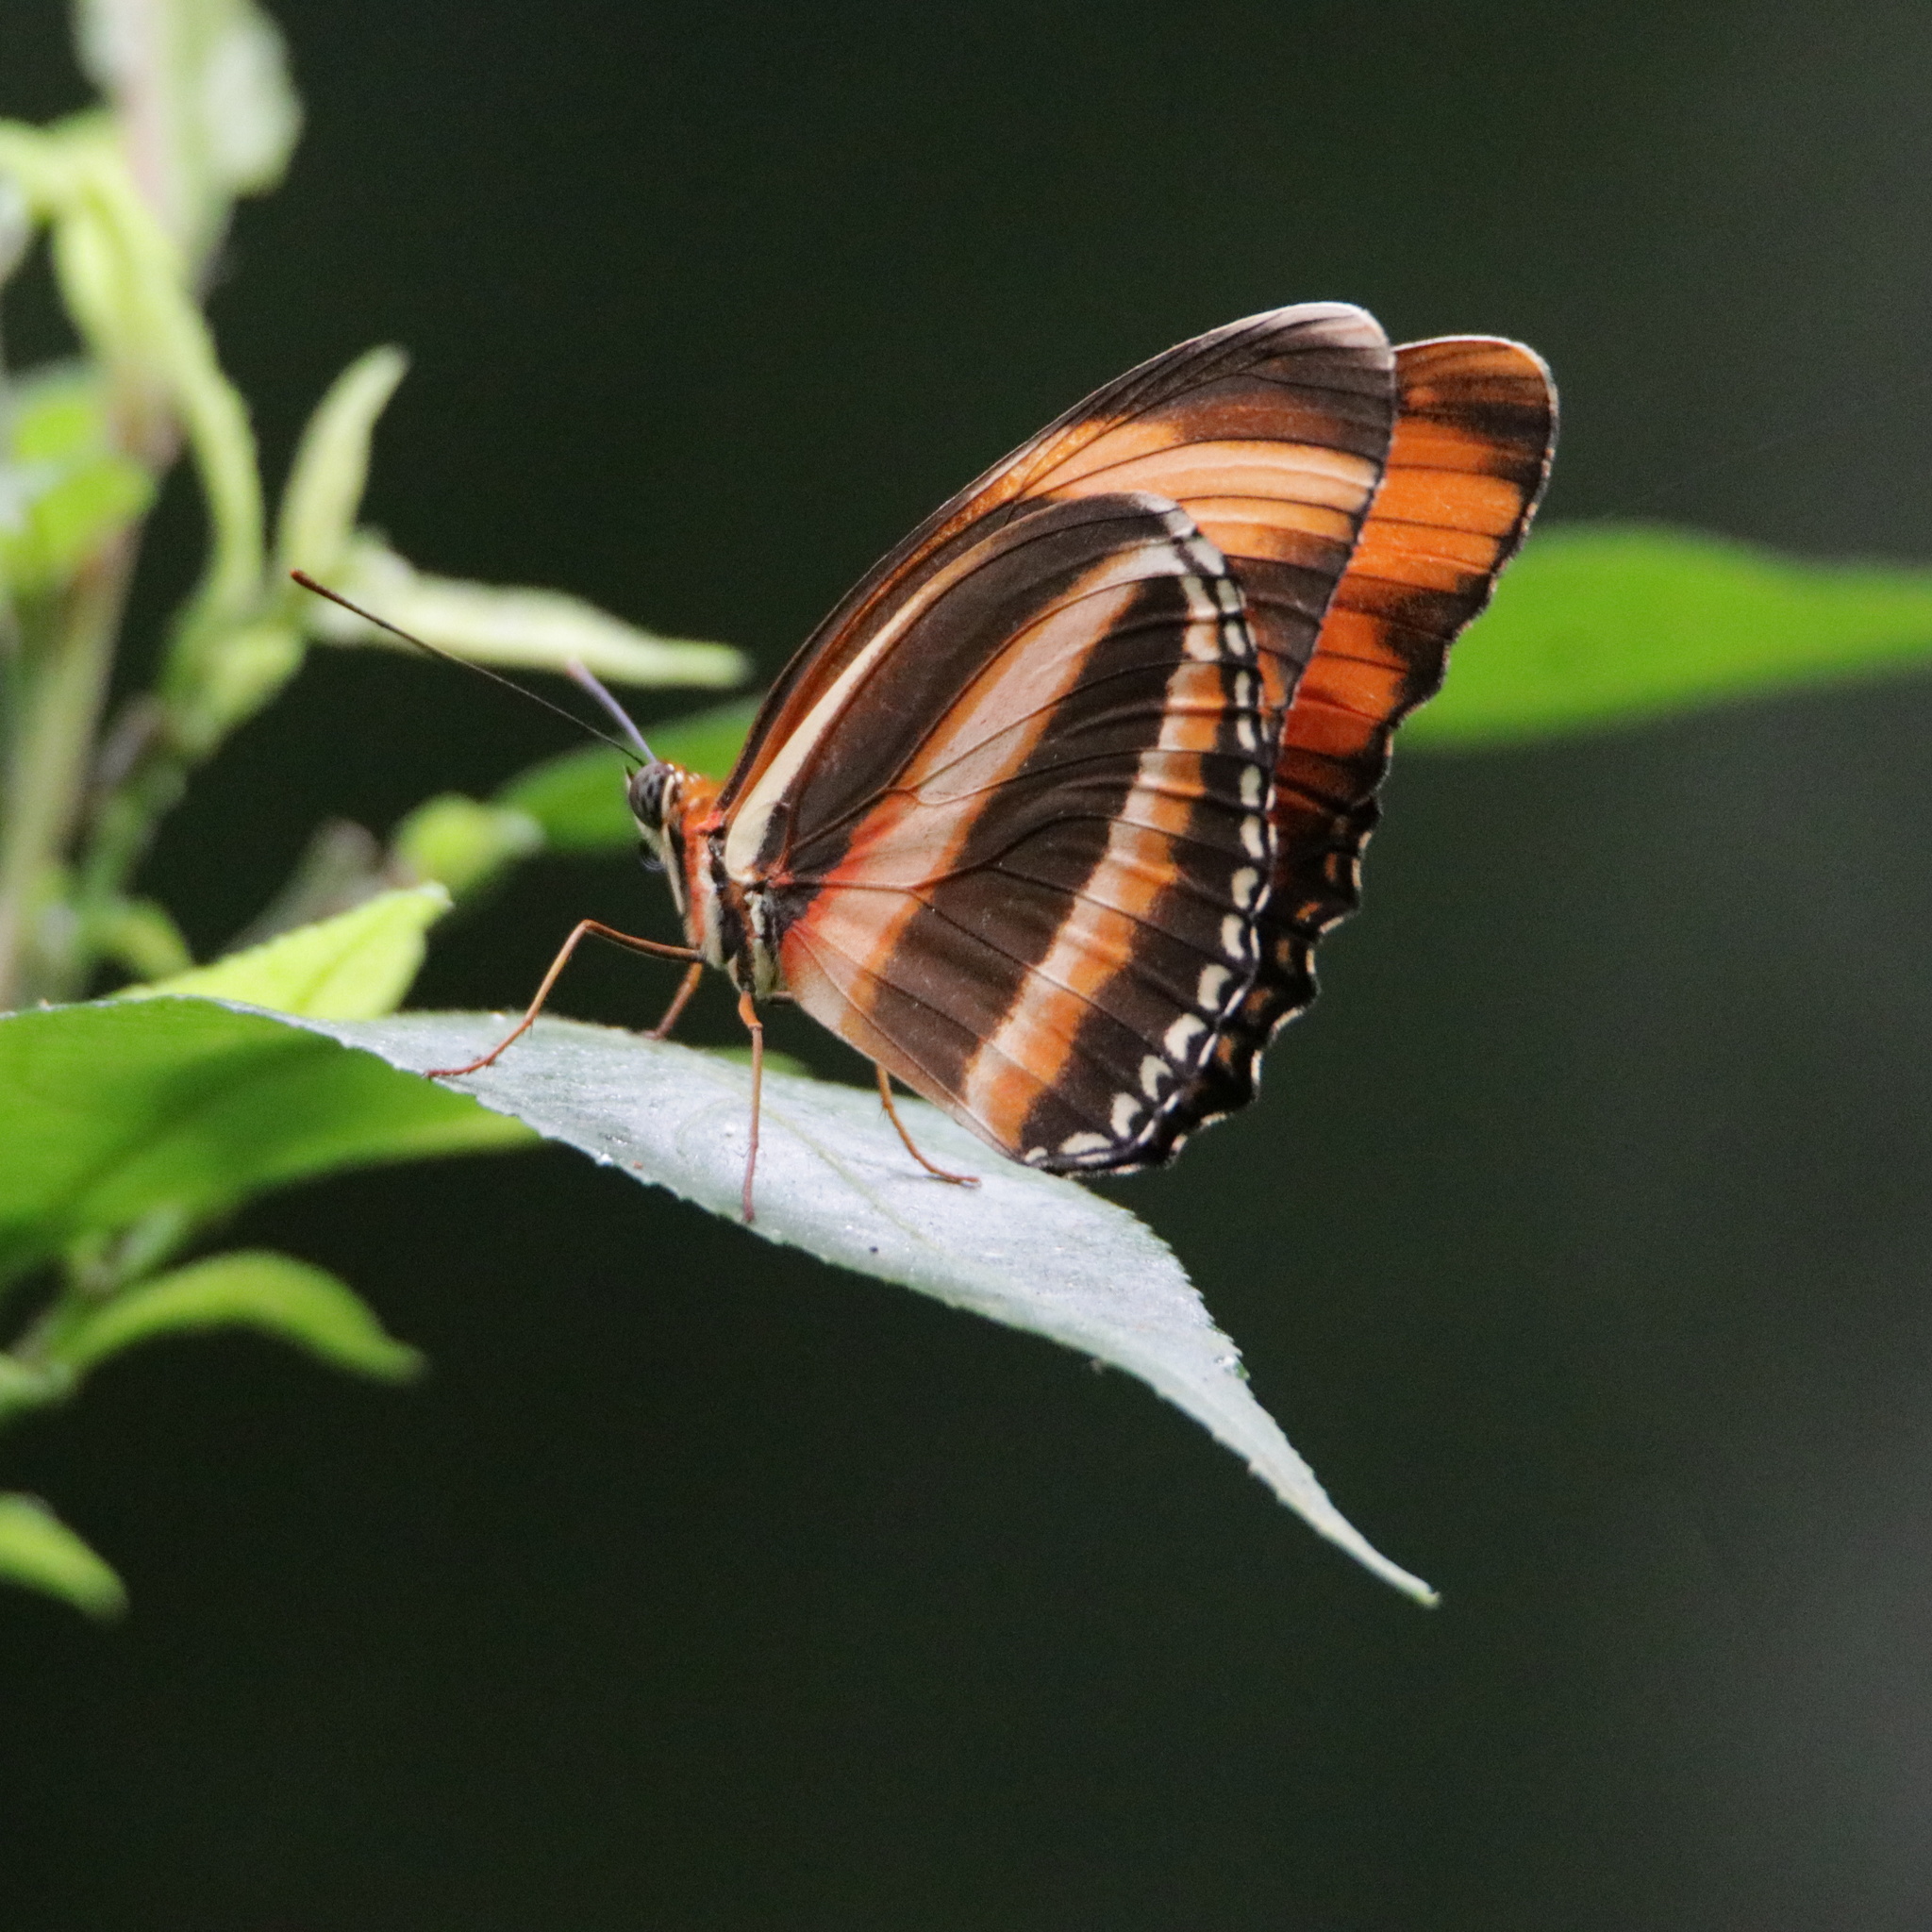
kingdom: Animalia
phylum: Arthropoda
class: Insecta
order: Lepidoptera
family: Nymphalidae
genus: Dryadula
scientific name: Dryadula phaetusa
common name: Banded orange heliconian
